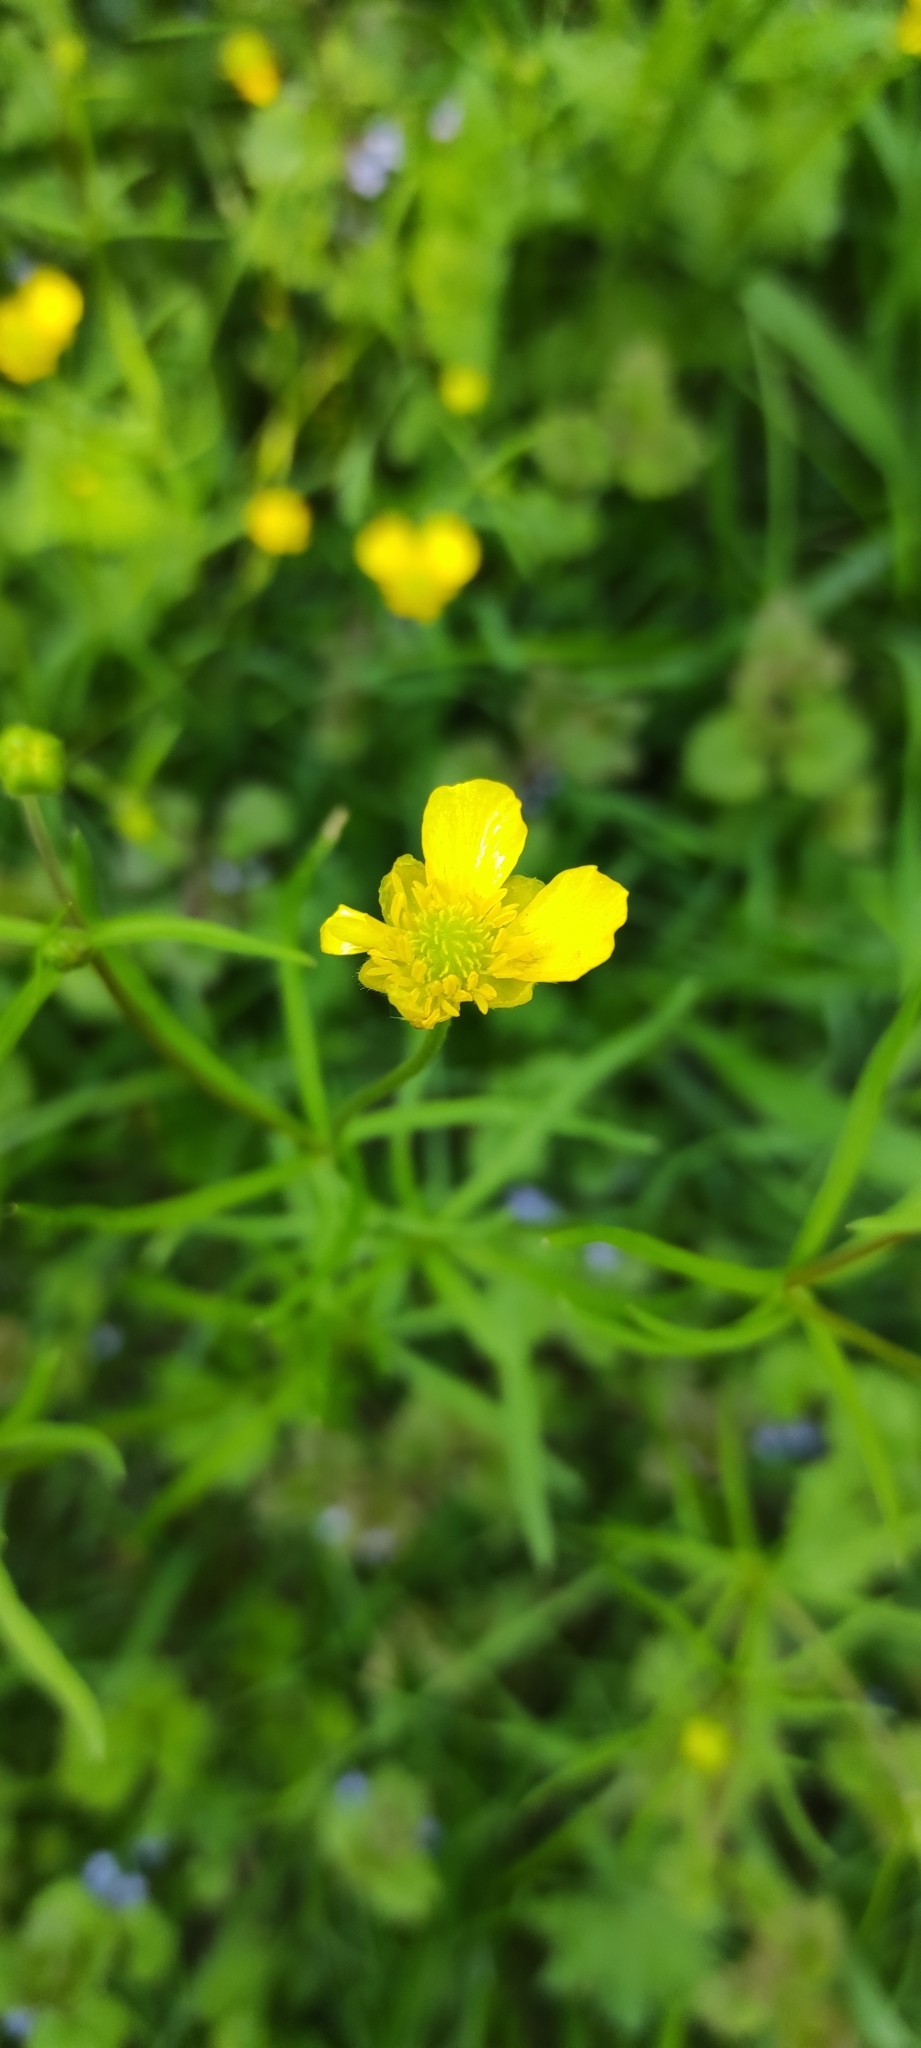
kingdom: Plantae
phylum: Tracheophyta
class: Magnoliopsida
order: Ranunculales
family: Ranunculaceae
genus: Ranunculus
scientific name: Ranunculus auricomus
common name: Goldilocks buttercup
